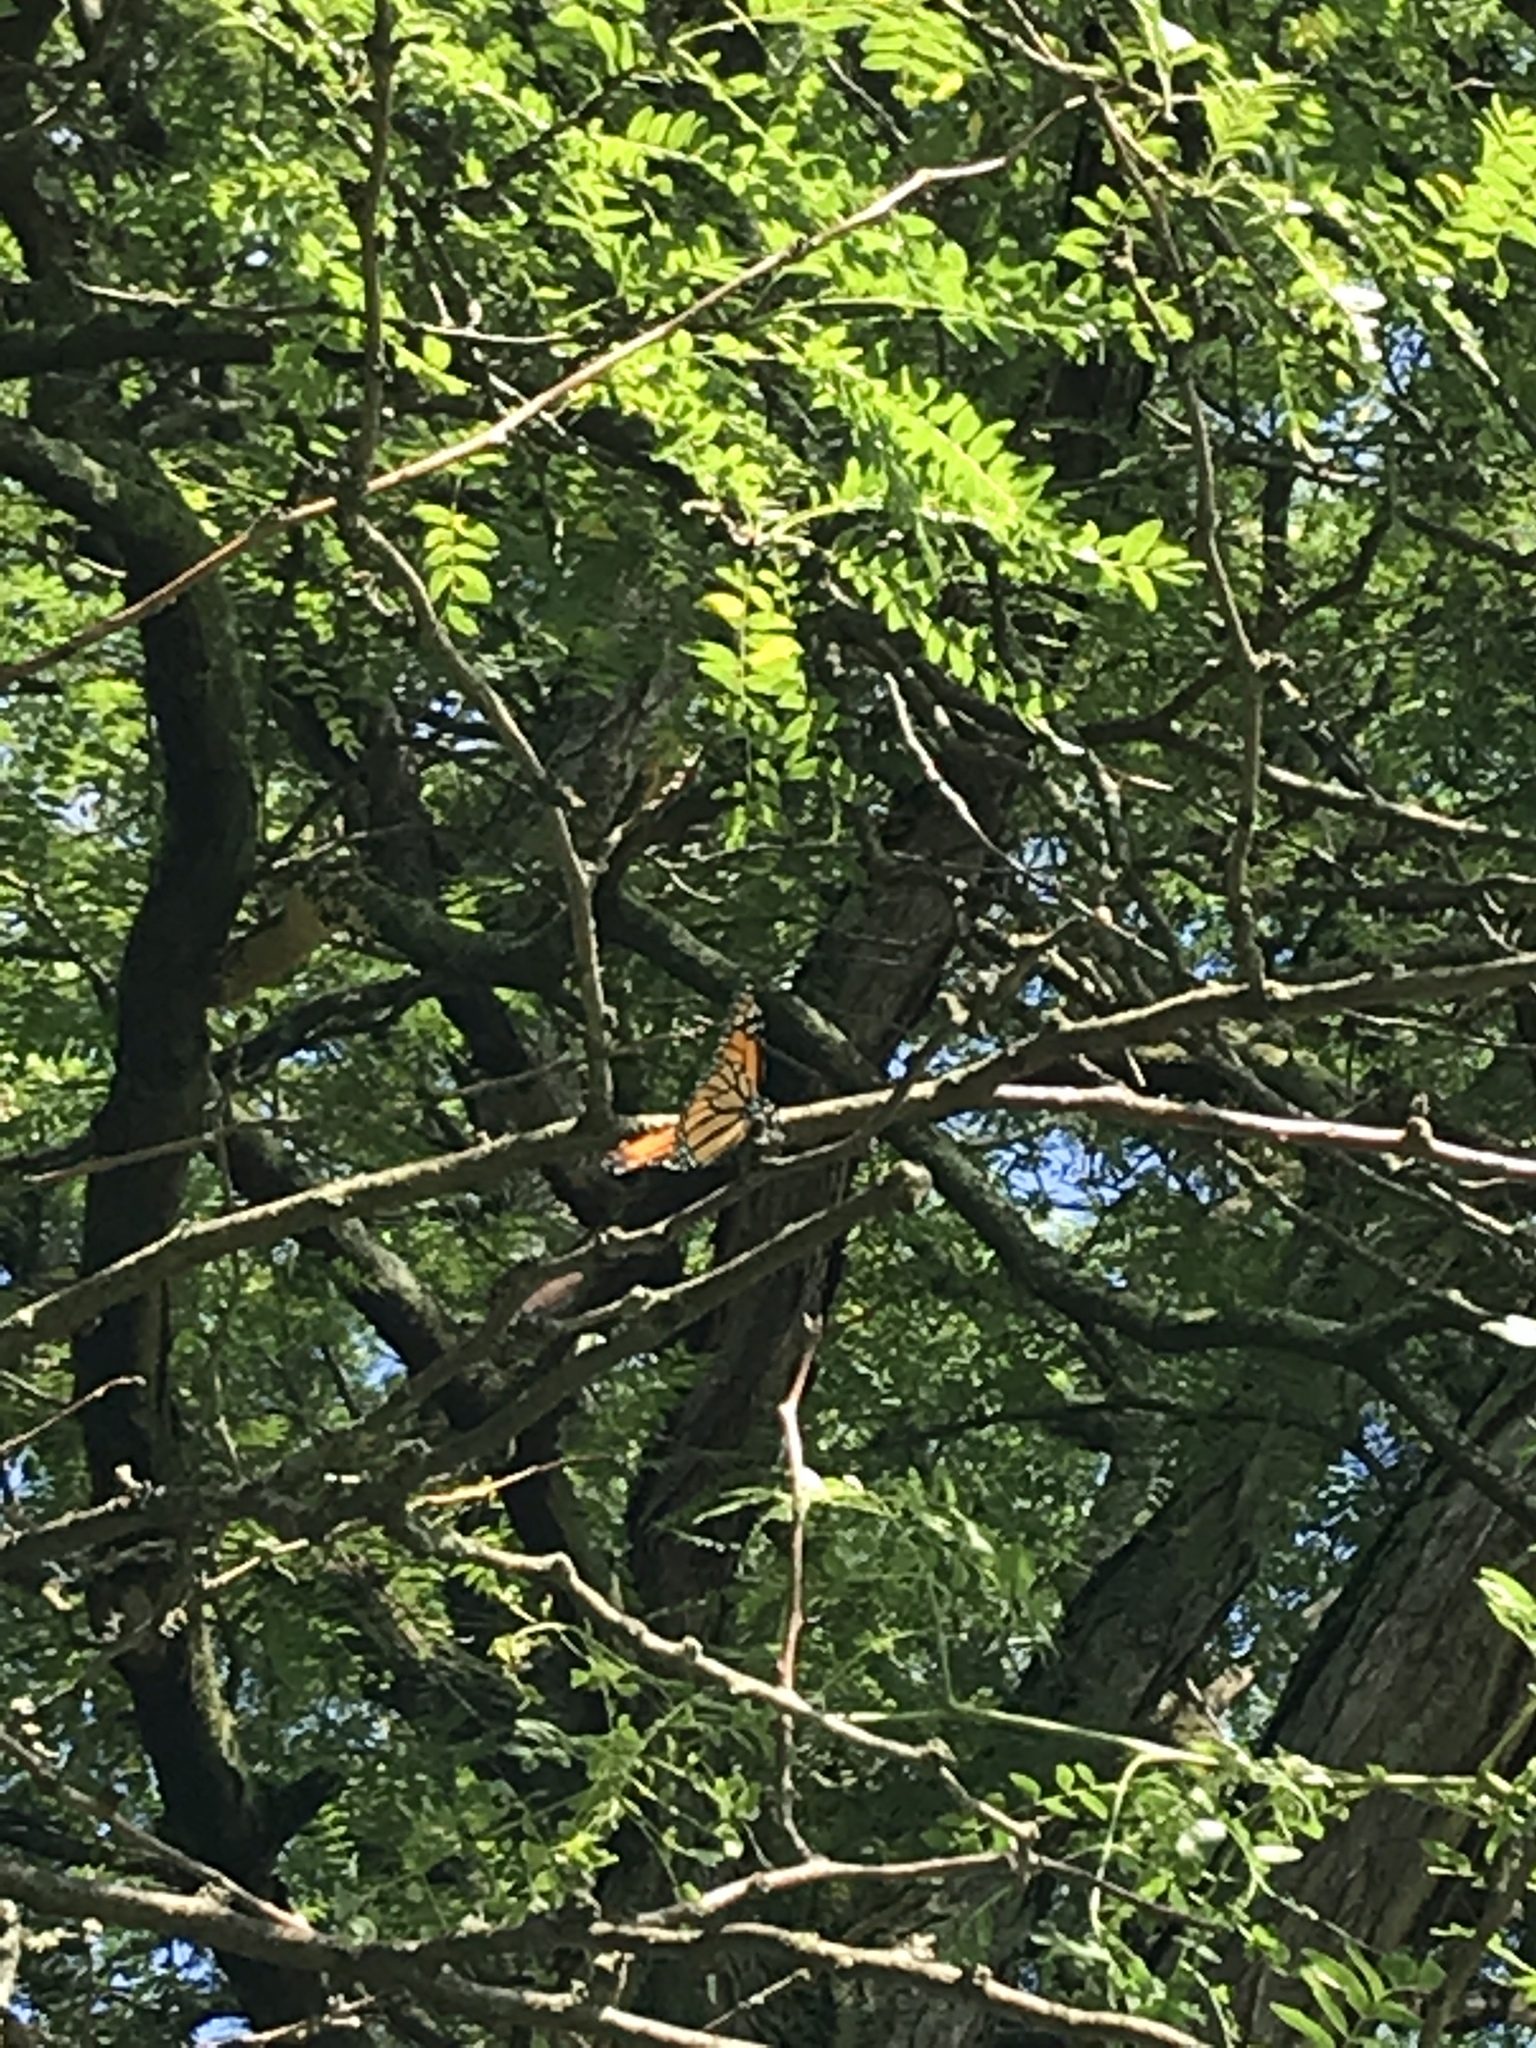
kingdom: Animalia
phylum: Arthropoda
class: Insecta
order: Lepidoptera
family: Nymphalidae
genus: Danaus
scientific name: Danaus plexippus
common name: Monarch
